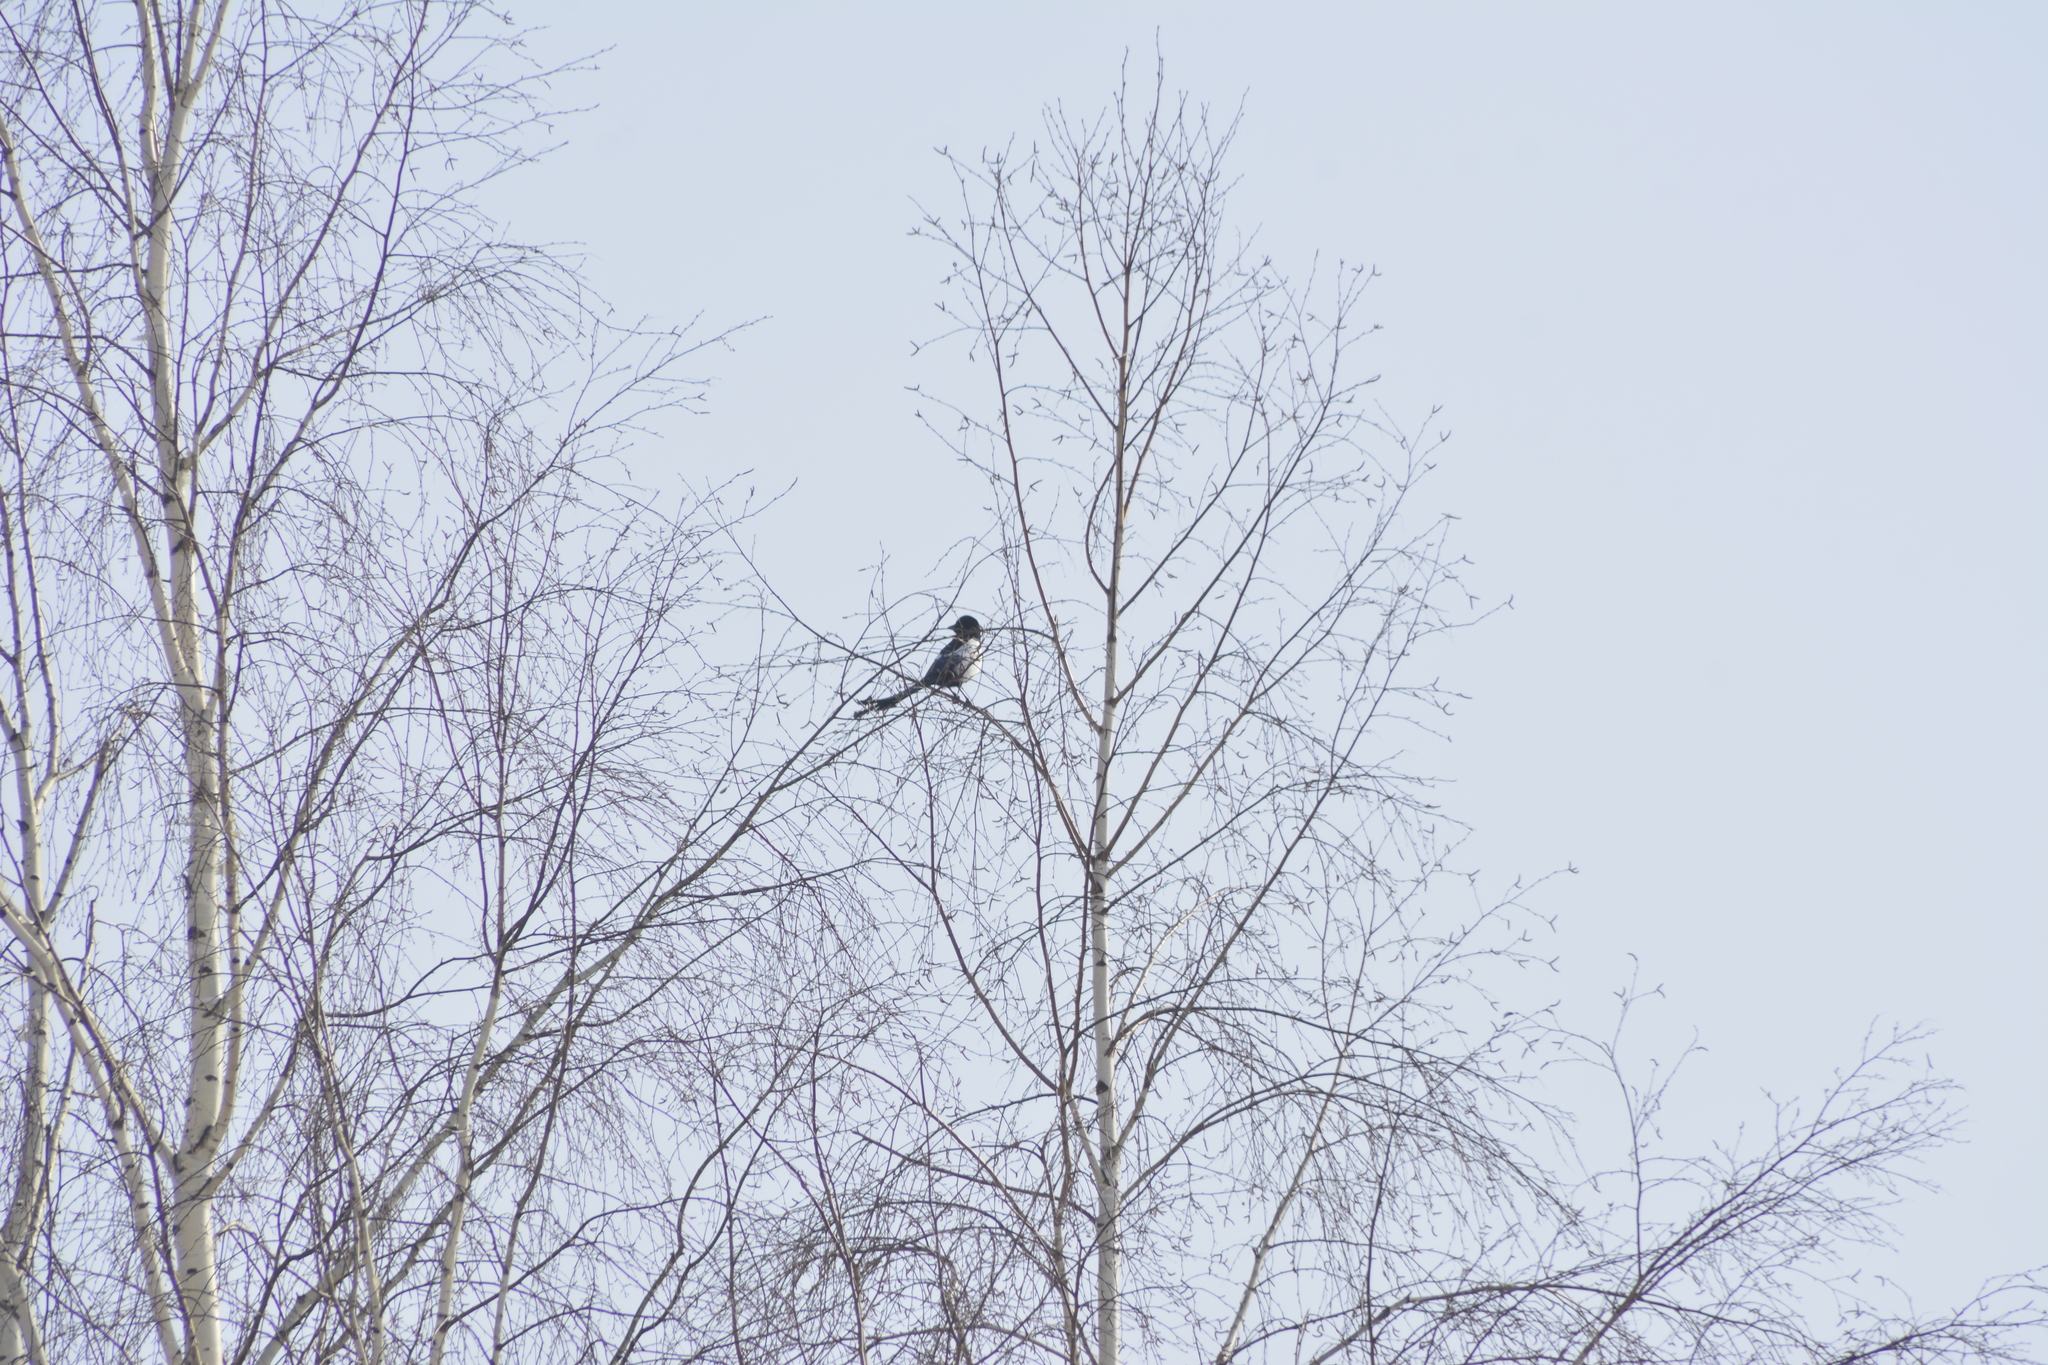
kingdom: Animalia
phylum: Chordata
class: Aves
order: Passeriformes
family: Corvidae
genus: Pica
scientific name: Pica pica
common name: Eurasian magpie
